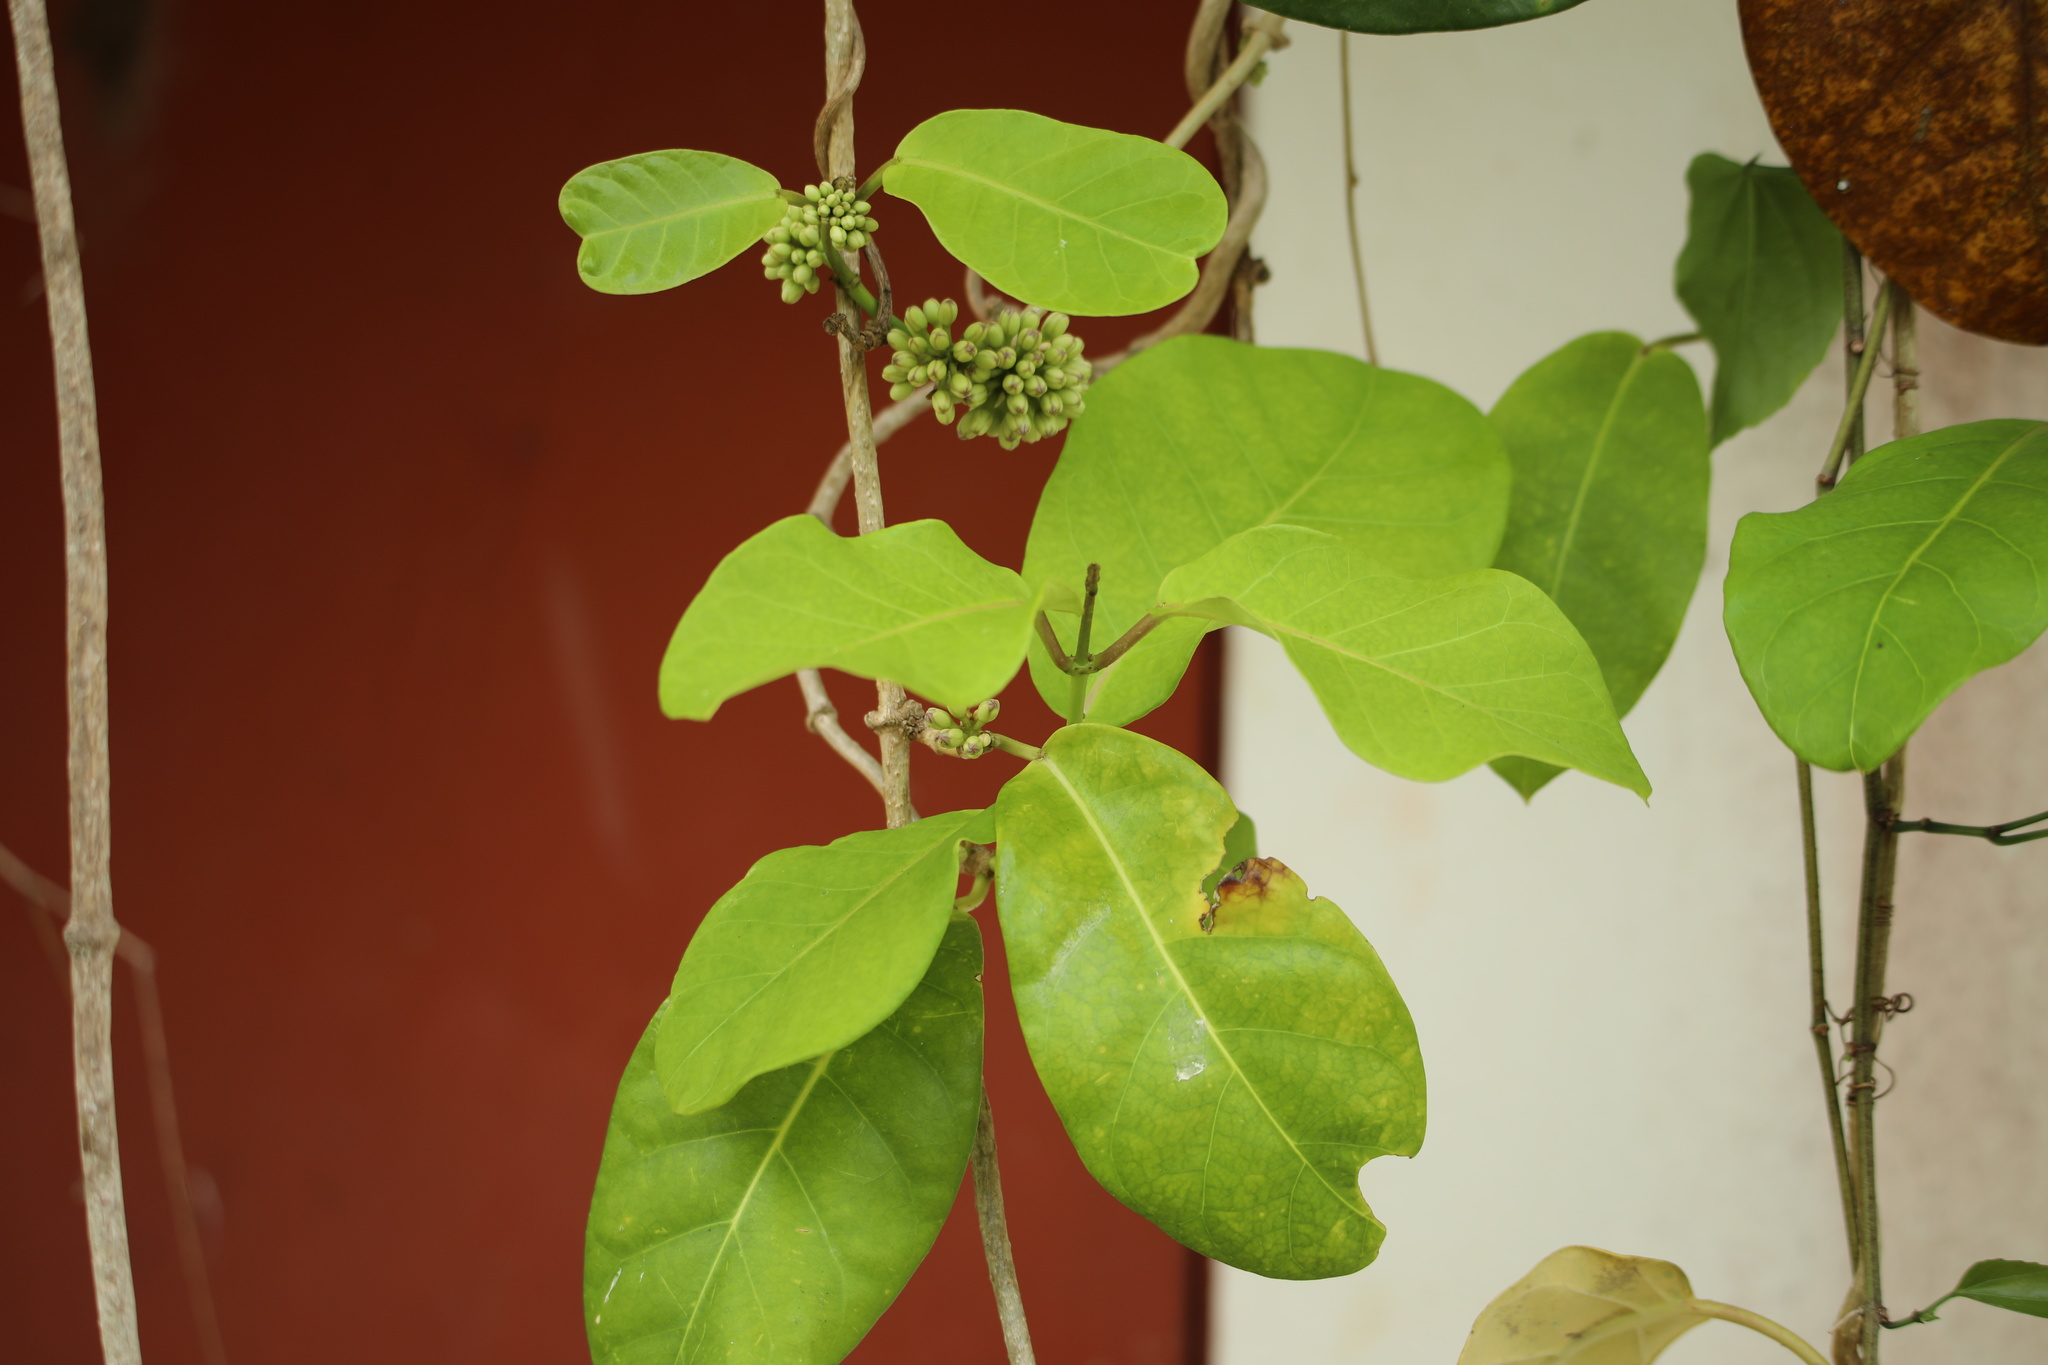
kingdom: Plantae
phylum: Tracheophyta
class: Magnoliopsida
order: Gentianales
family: Apocynaceae
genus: Ruehssia
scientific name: Ruehssia macrophylla
